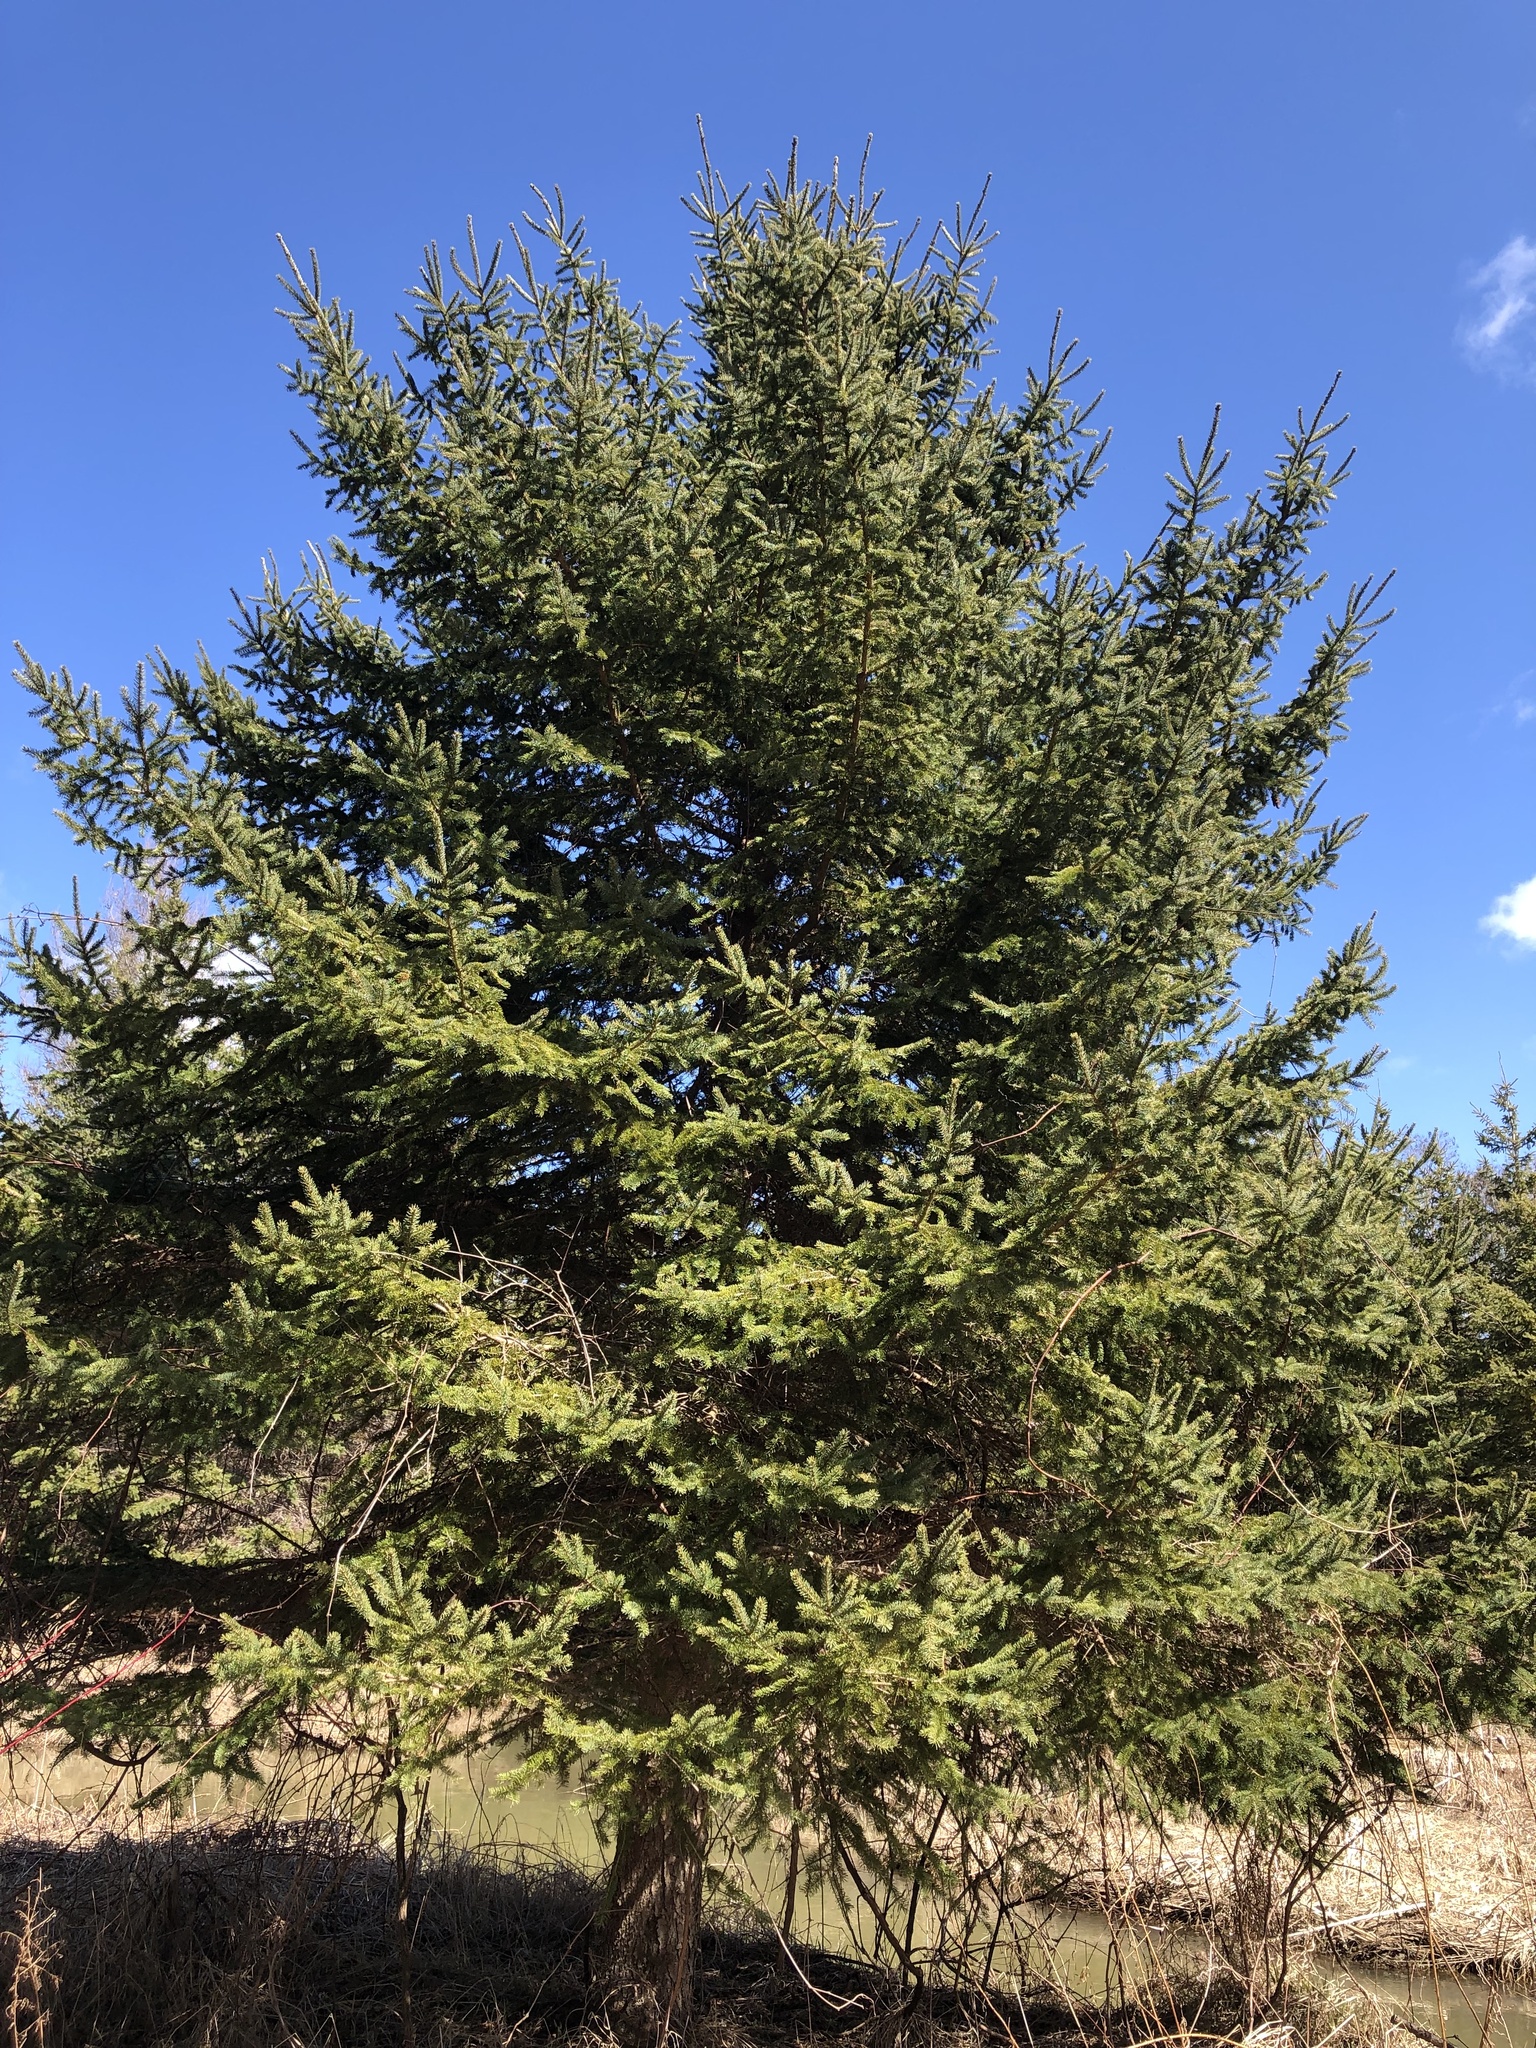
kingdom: Plantae
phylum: Tracheophyta
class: Pinopsida
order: Pinales
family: Pinaceae
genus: Picea
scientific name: Picea glauca
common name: White spruce
